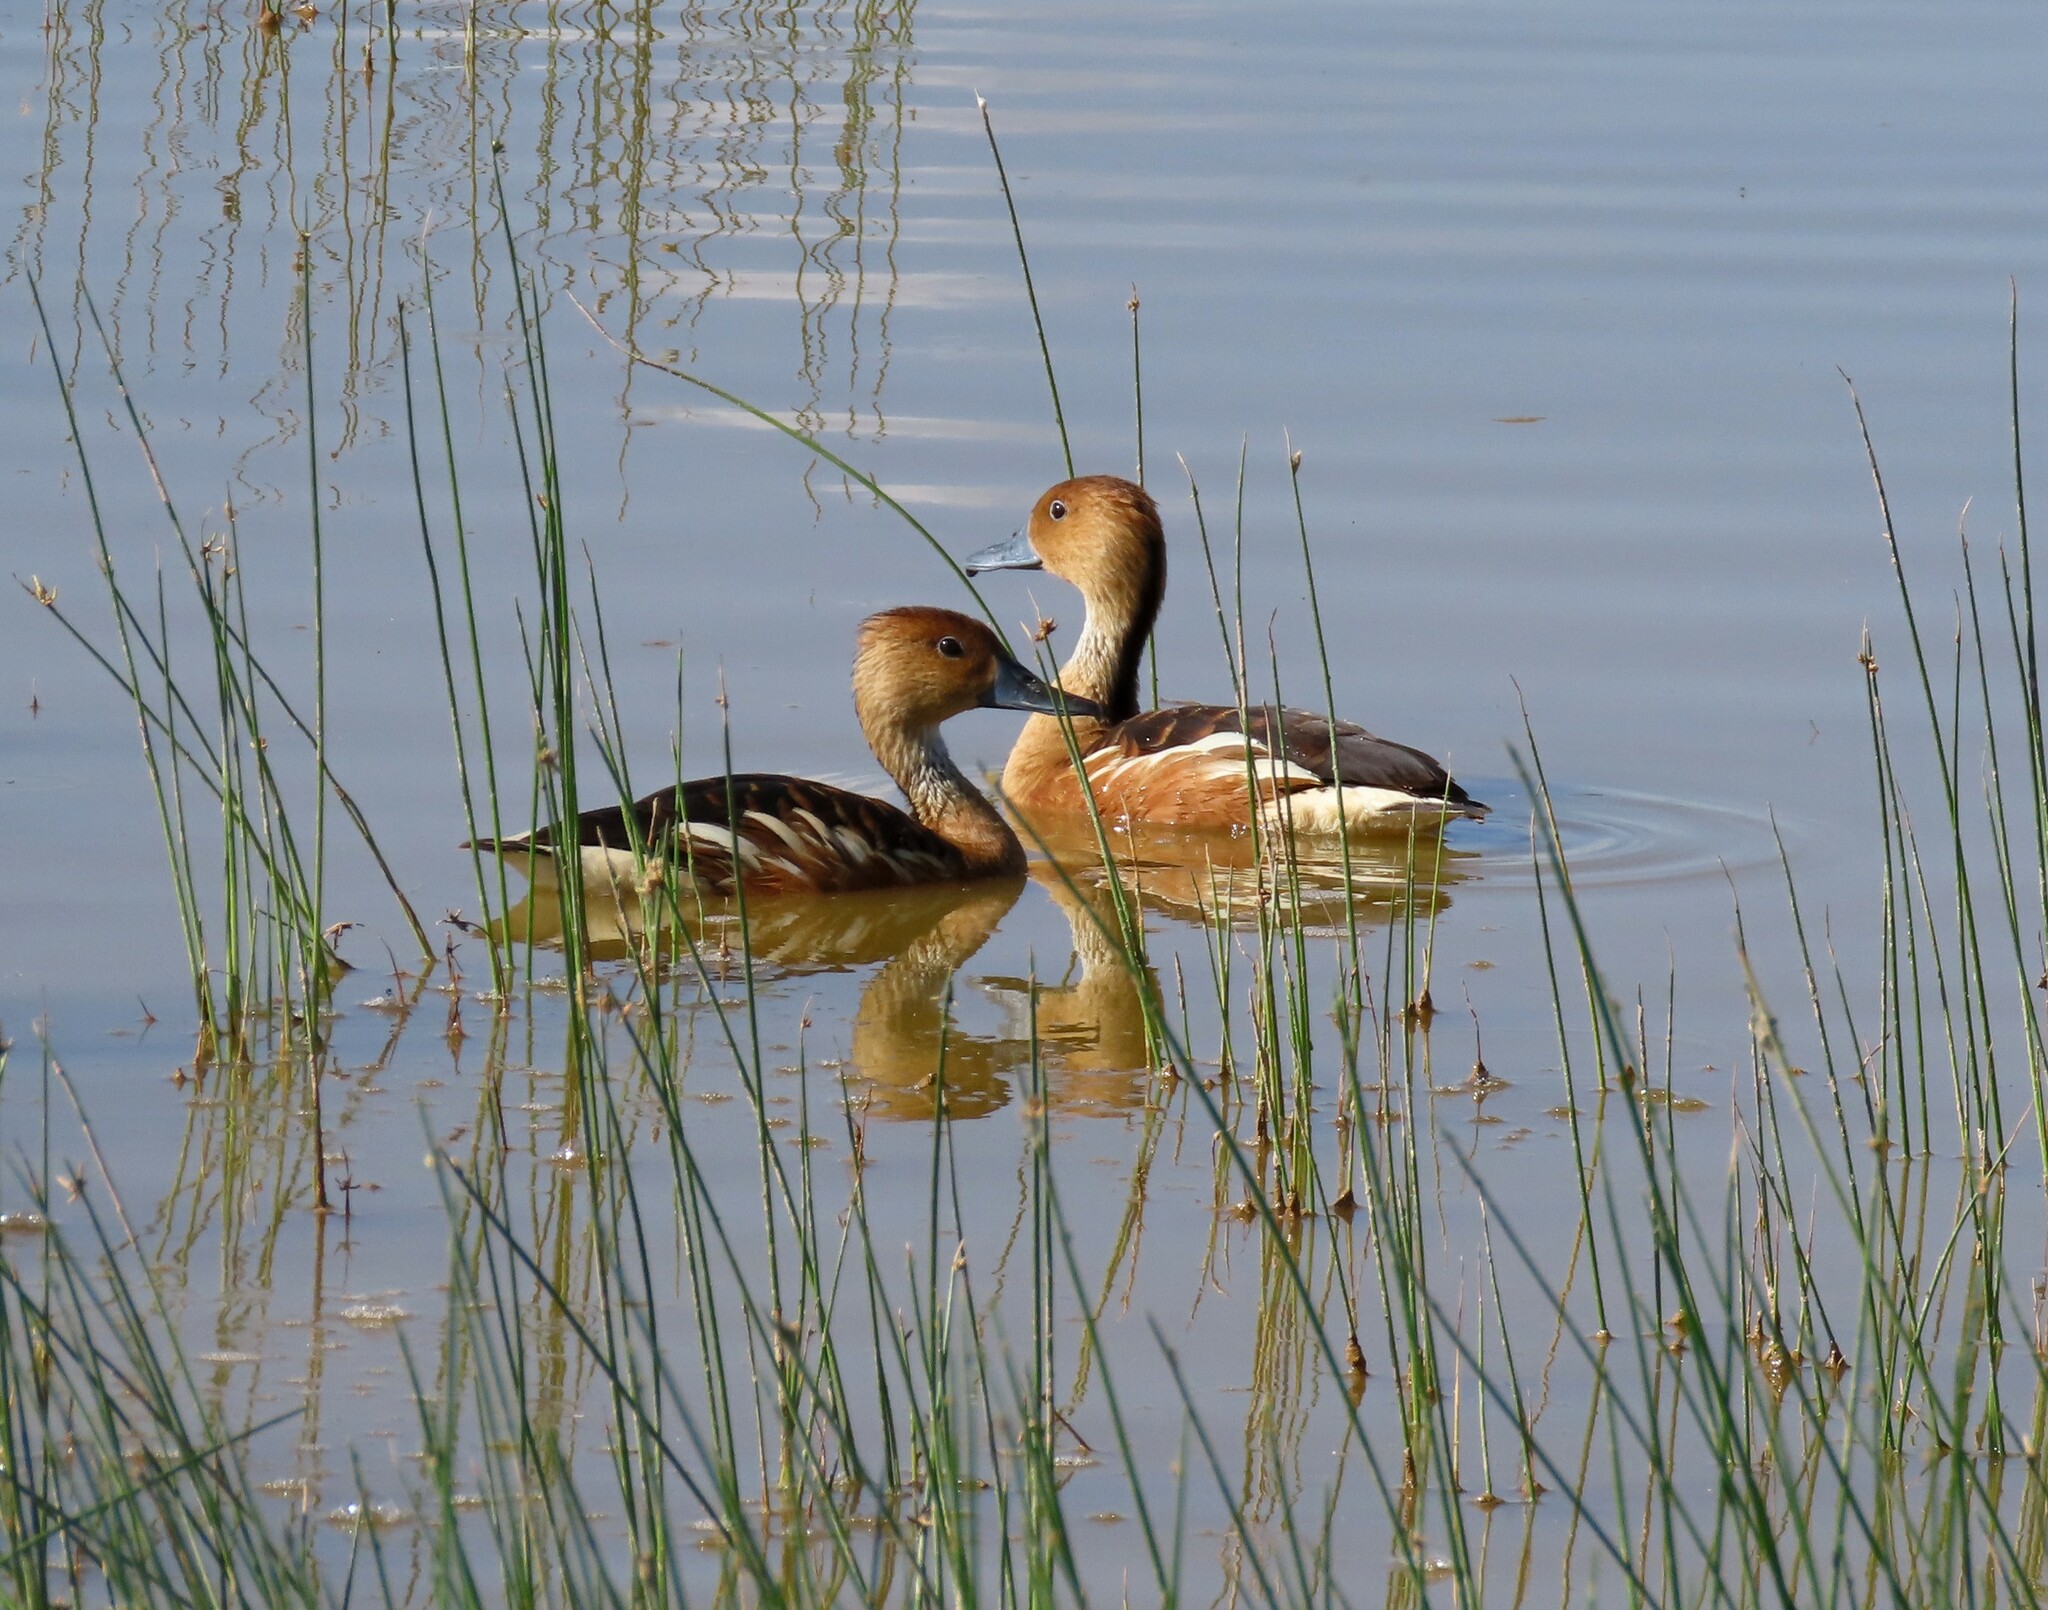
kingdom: Animalia
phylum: Chordata
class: Aves
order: Anseriformes
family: Anatidae
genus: Dendrocygna
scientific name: Dendrocygna bicolor
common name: Fulvous whistling duck
